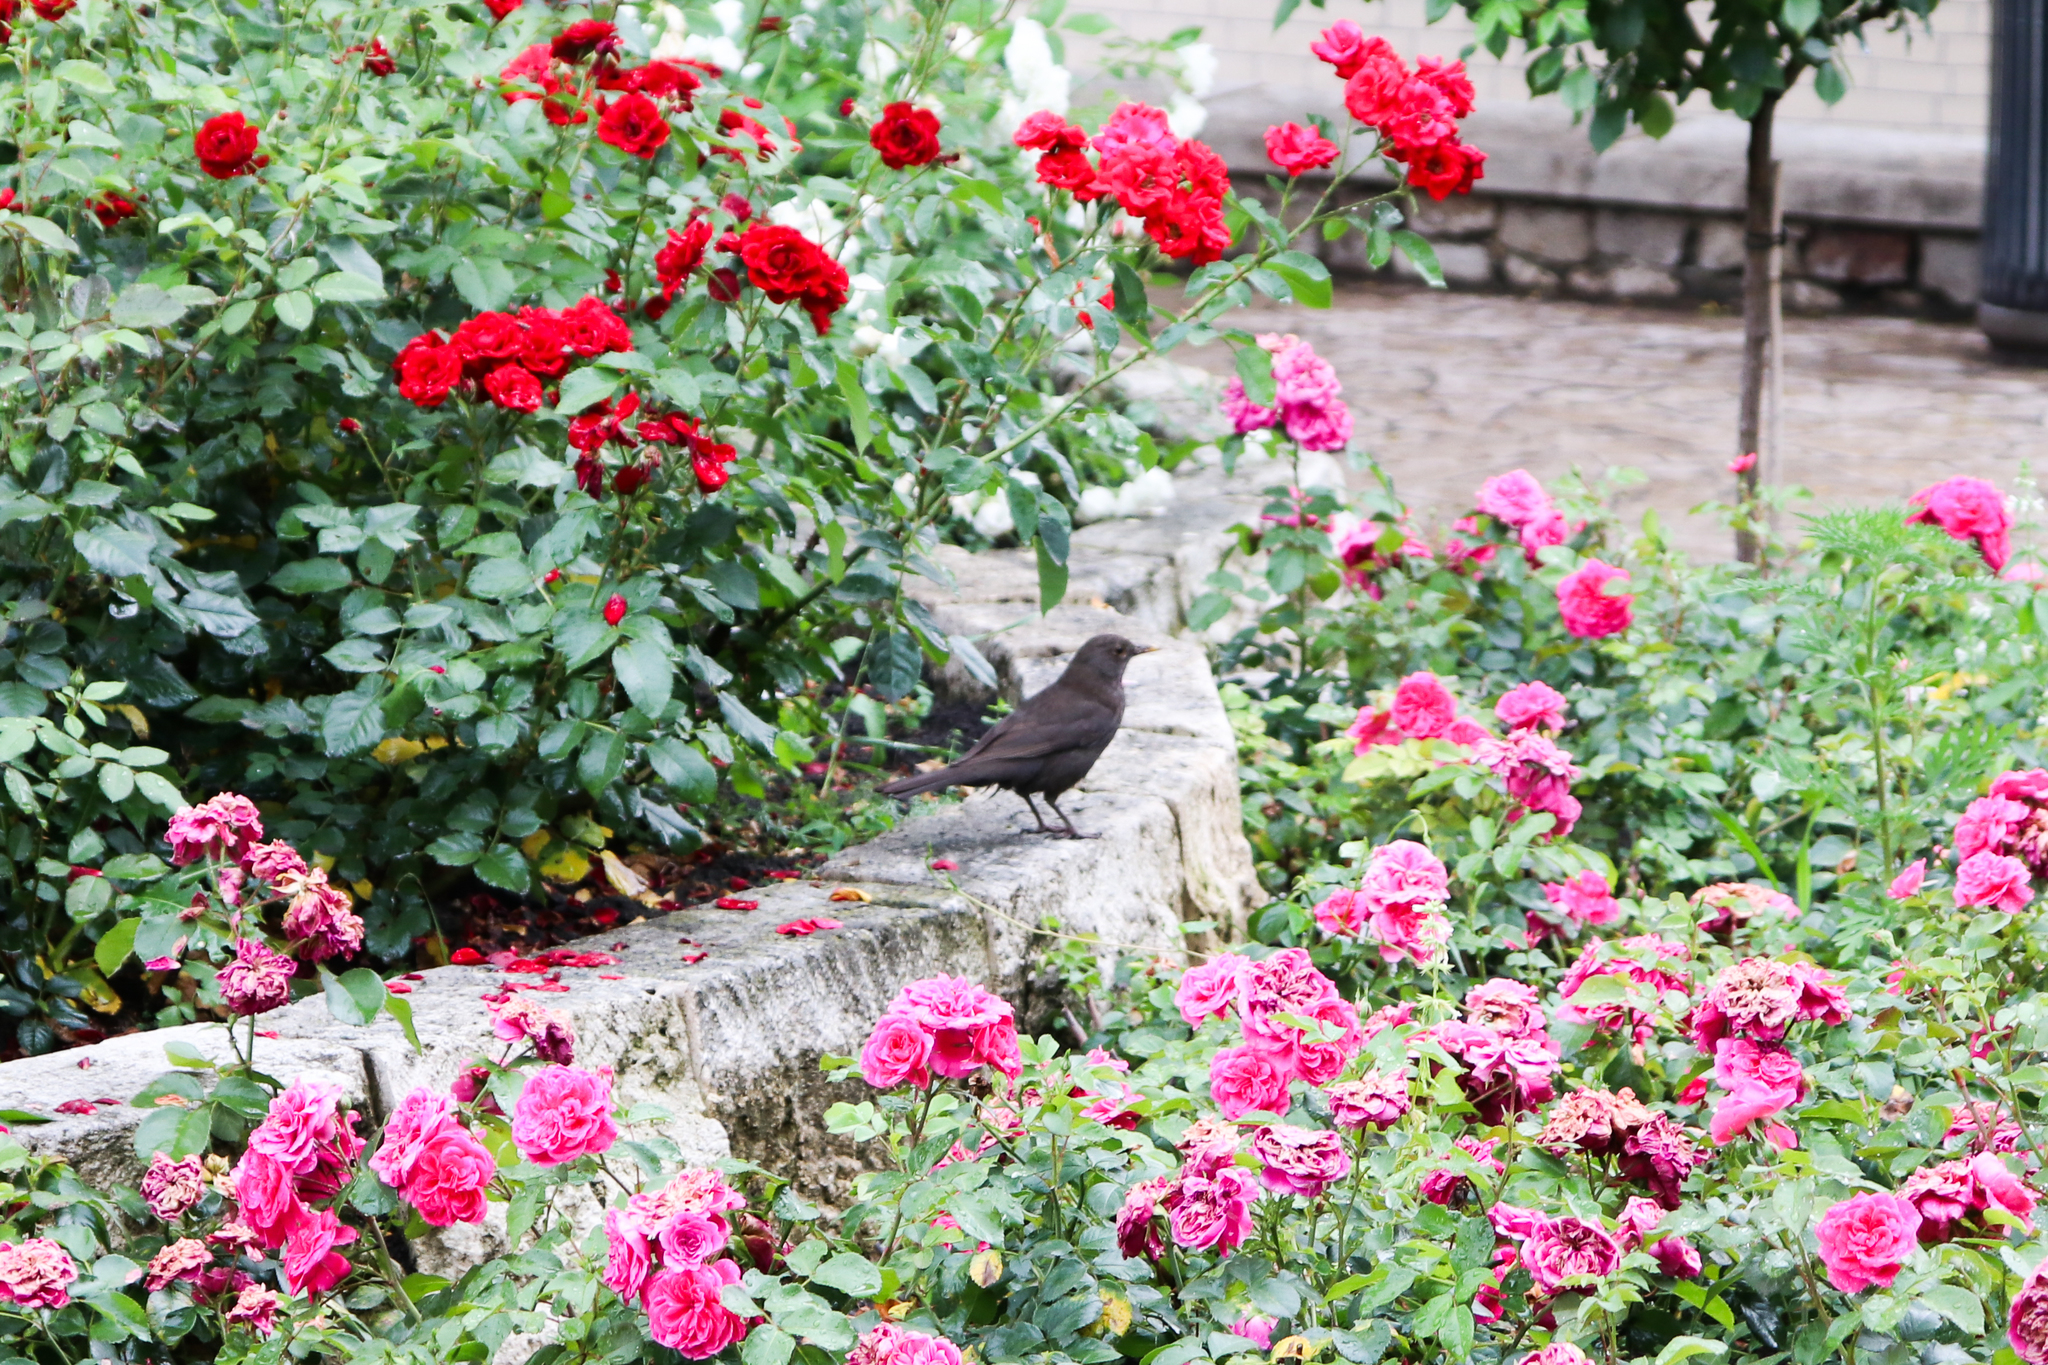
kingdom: Animalia
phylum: Chordata
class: Aves
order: Passeriformes
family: Turdidae
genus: Turdus
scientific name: Turdus merula
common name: Common blackbird
